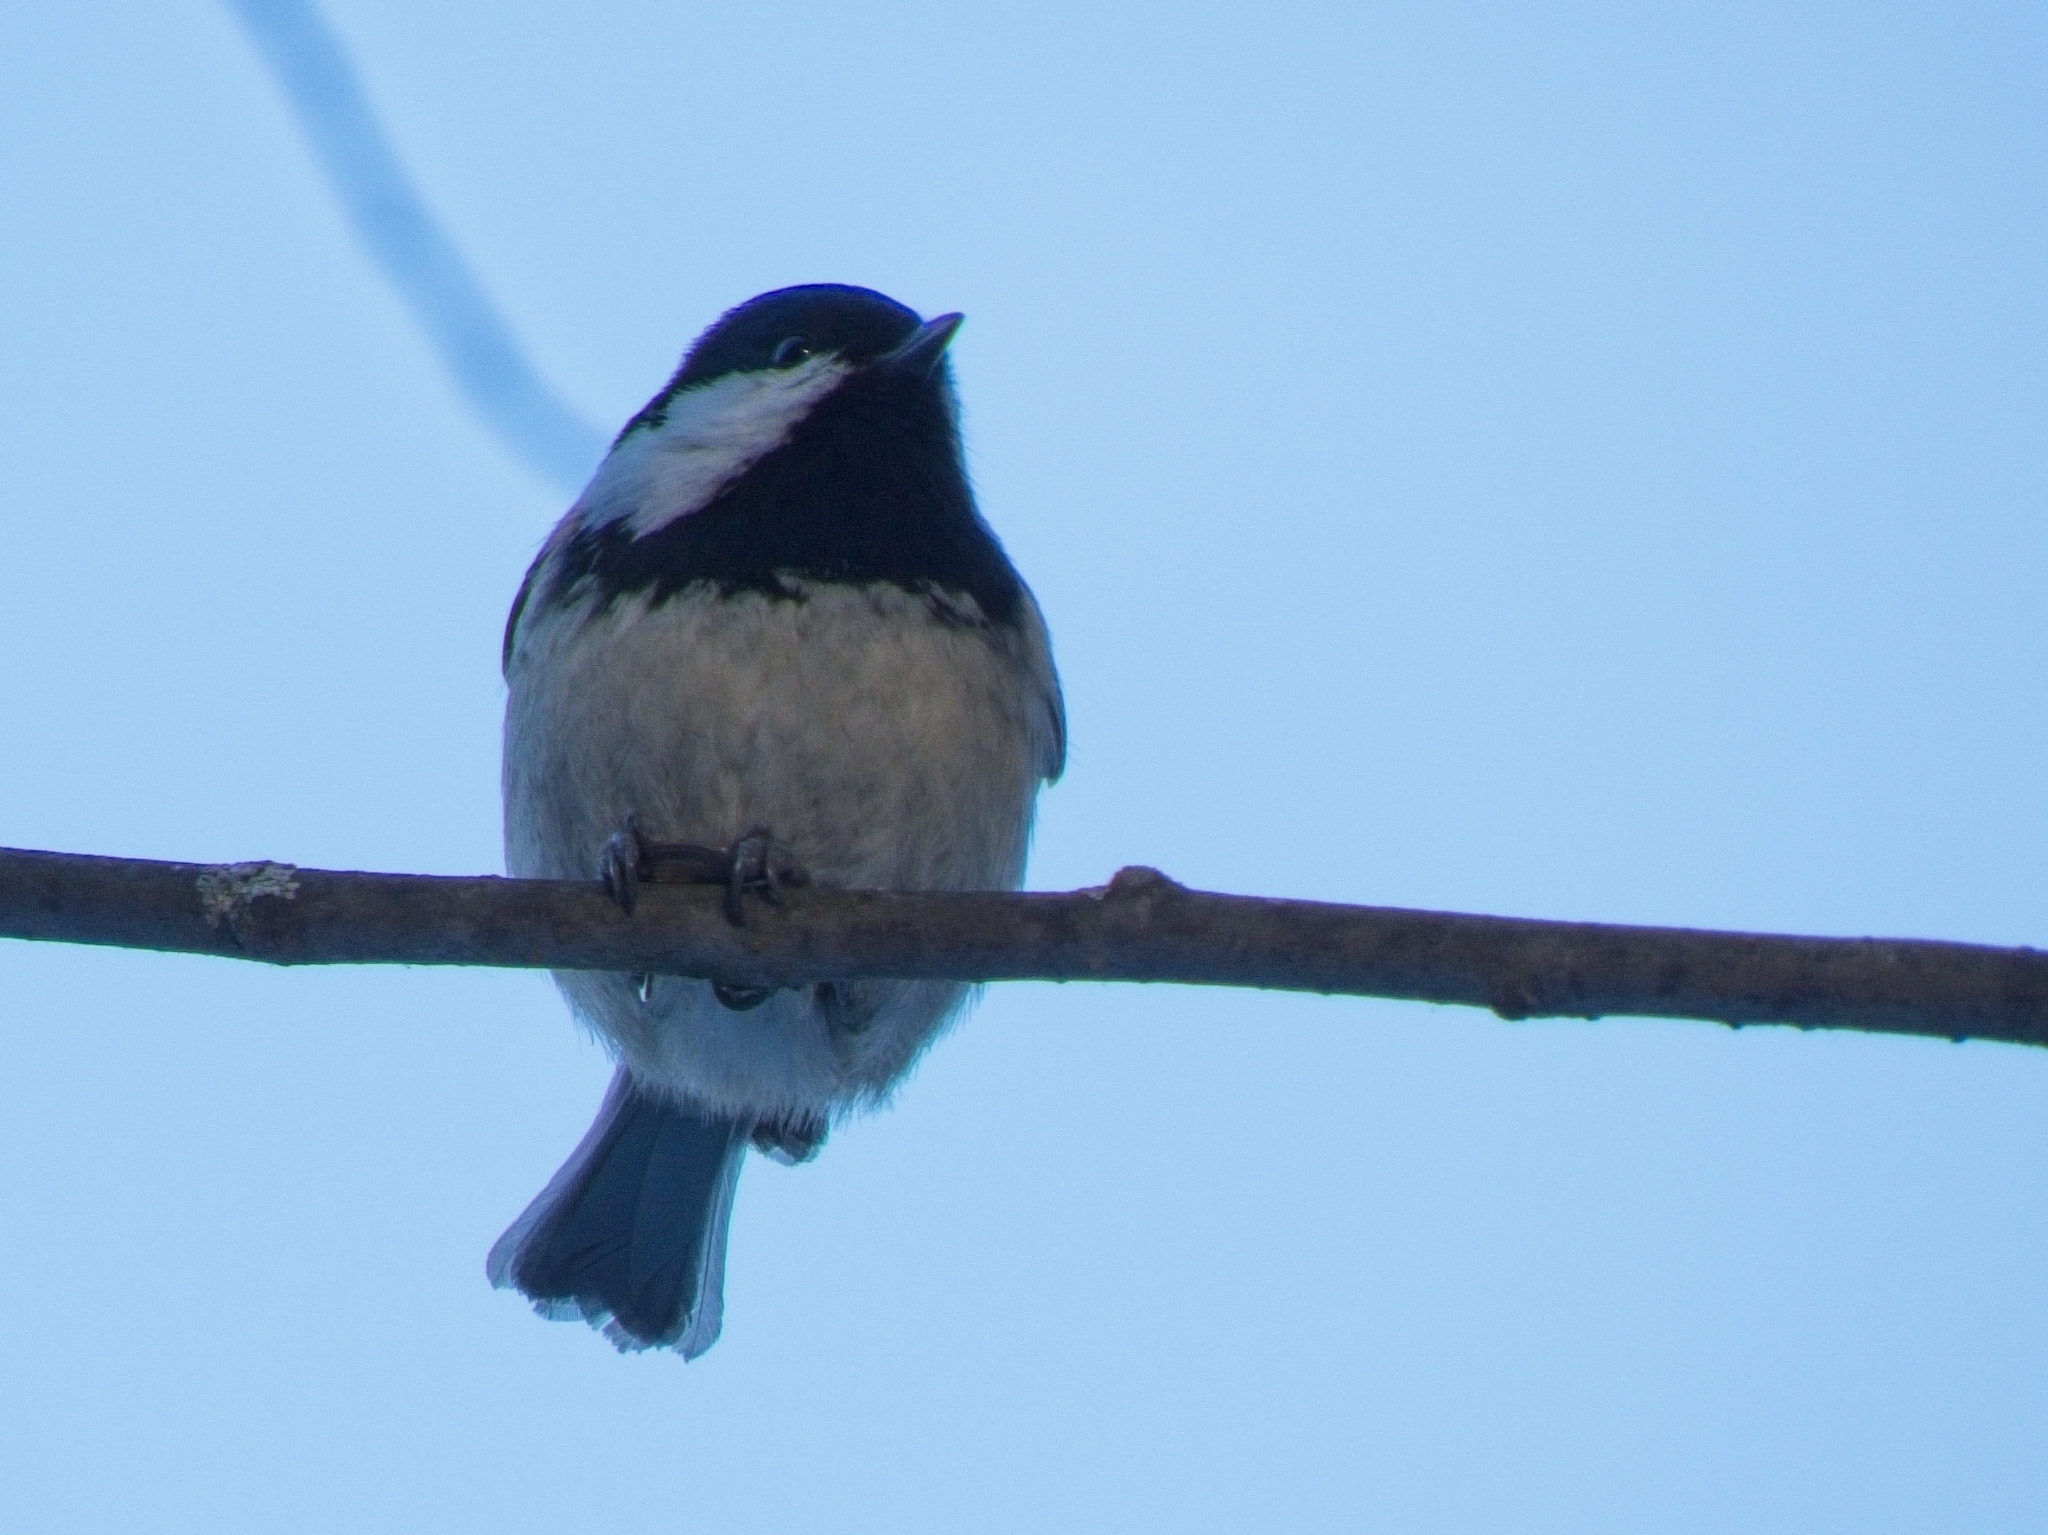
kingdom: Animalia
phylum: Chordata
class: Aves
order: Passeriformes
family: Paridae
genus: Periparus
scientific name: Periparus ater
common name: Coal tit
